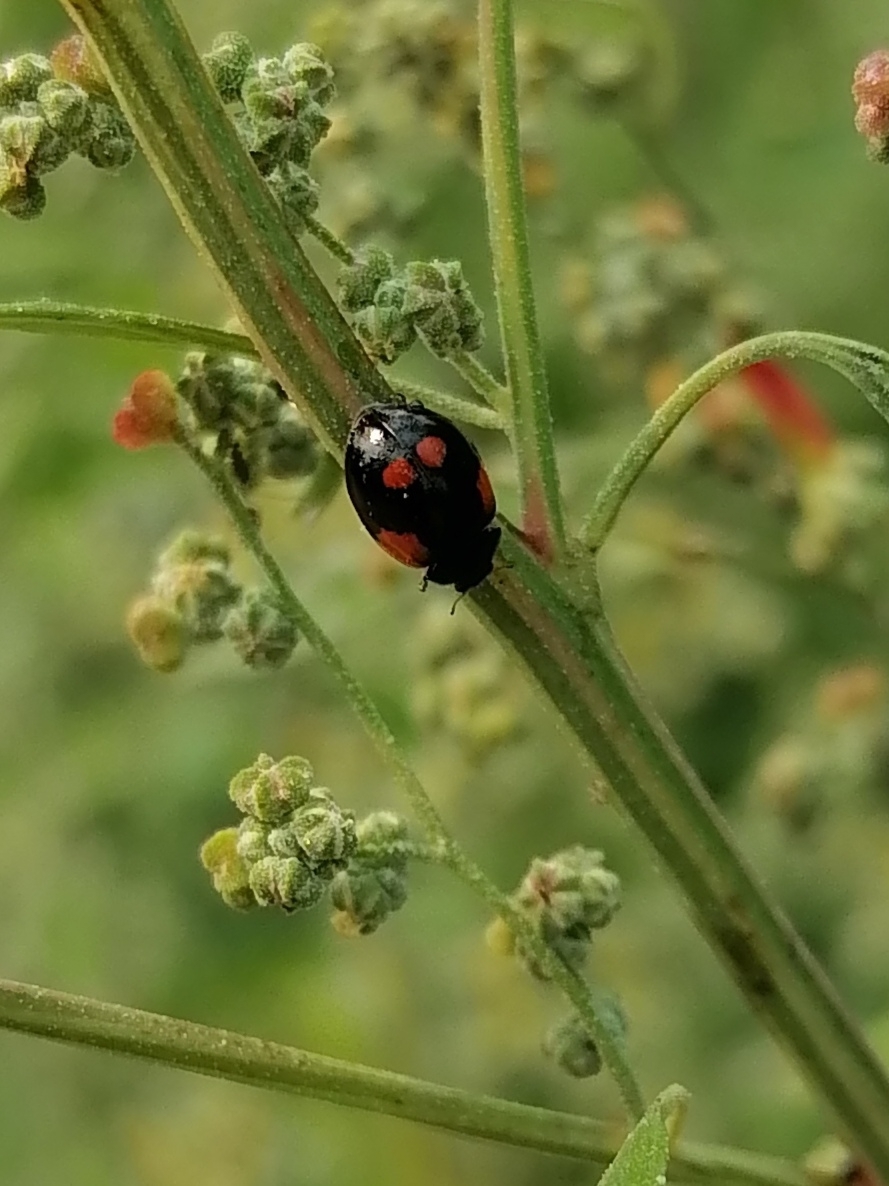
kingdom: Animalia
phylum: Arthropoda
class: Insecta
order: Coleoptera
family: Coccinellidae
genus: Adalia
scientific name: Adalia bipunctata
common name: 2-spot ladybird
